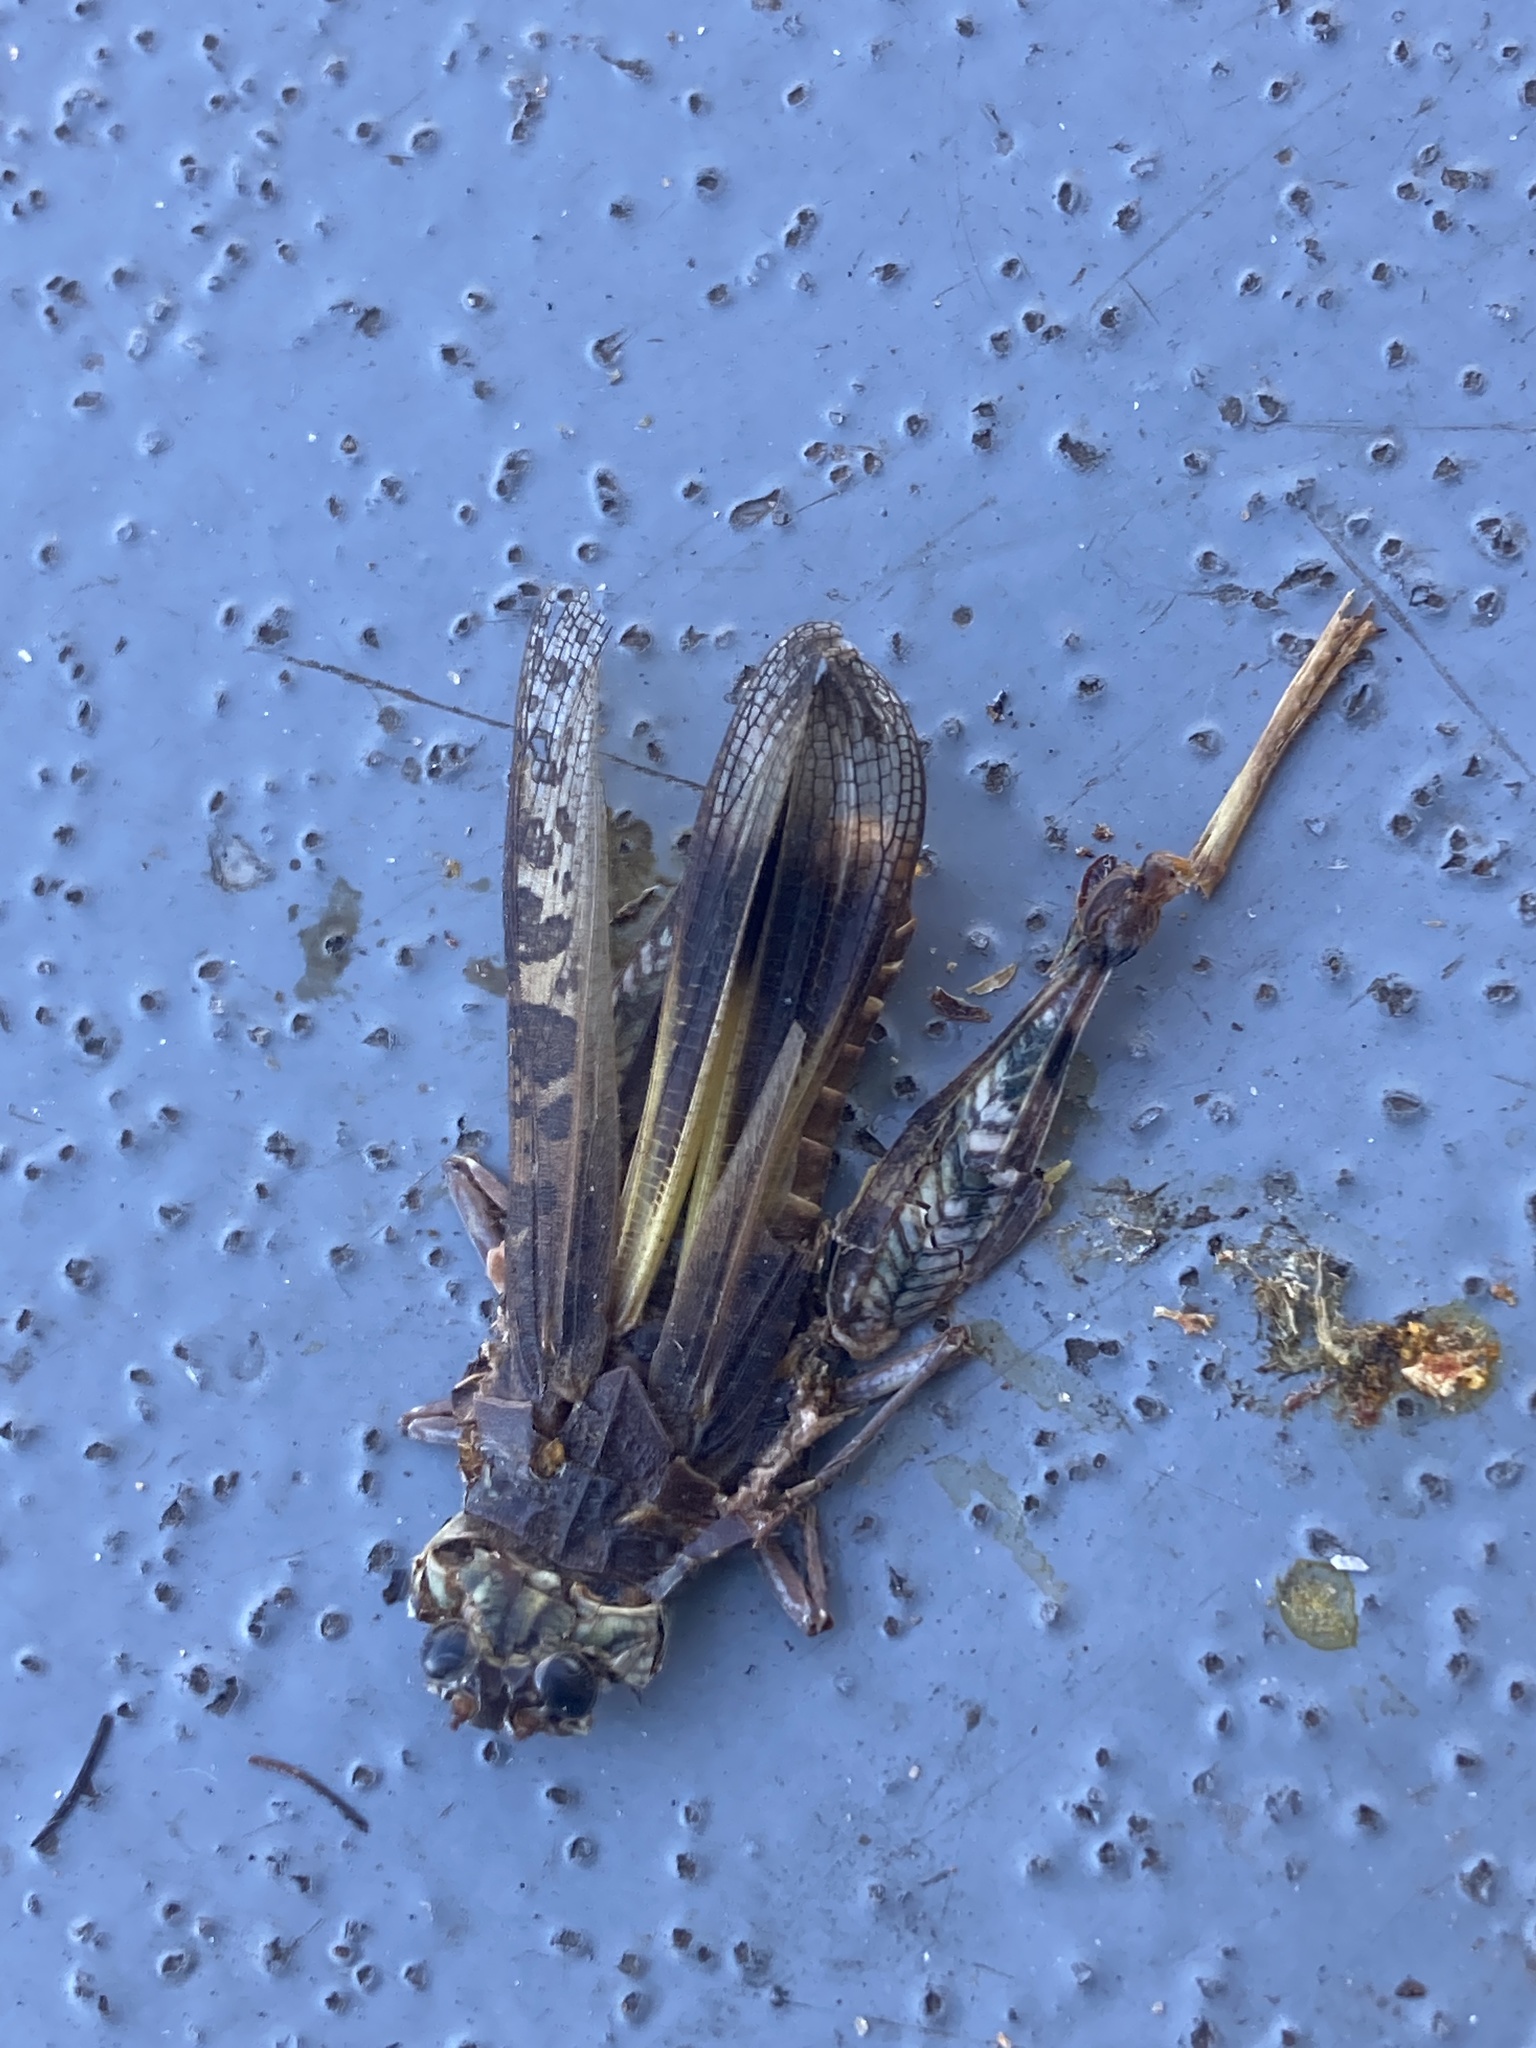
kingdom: Animalia
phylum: Arthropoda
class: Insecta
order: Orthoptera
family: Acrididae
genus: Hippiscus
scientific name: Hippiscus ocelote
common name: Wrinkled grasshopper
